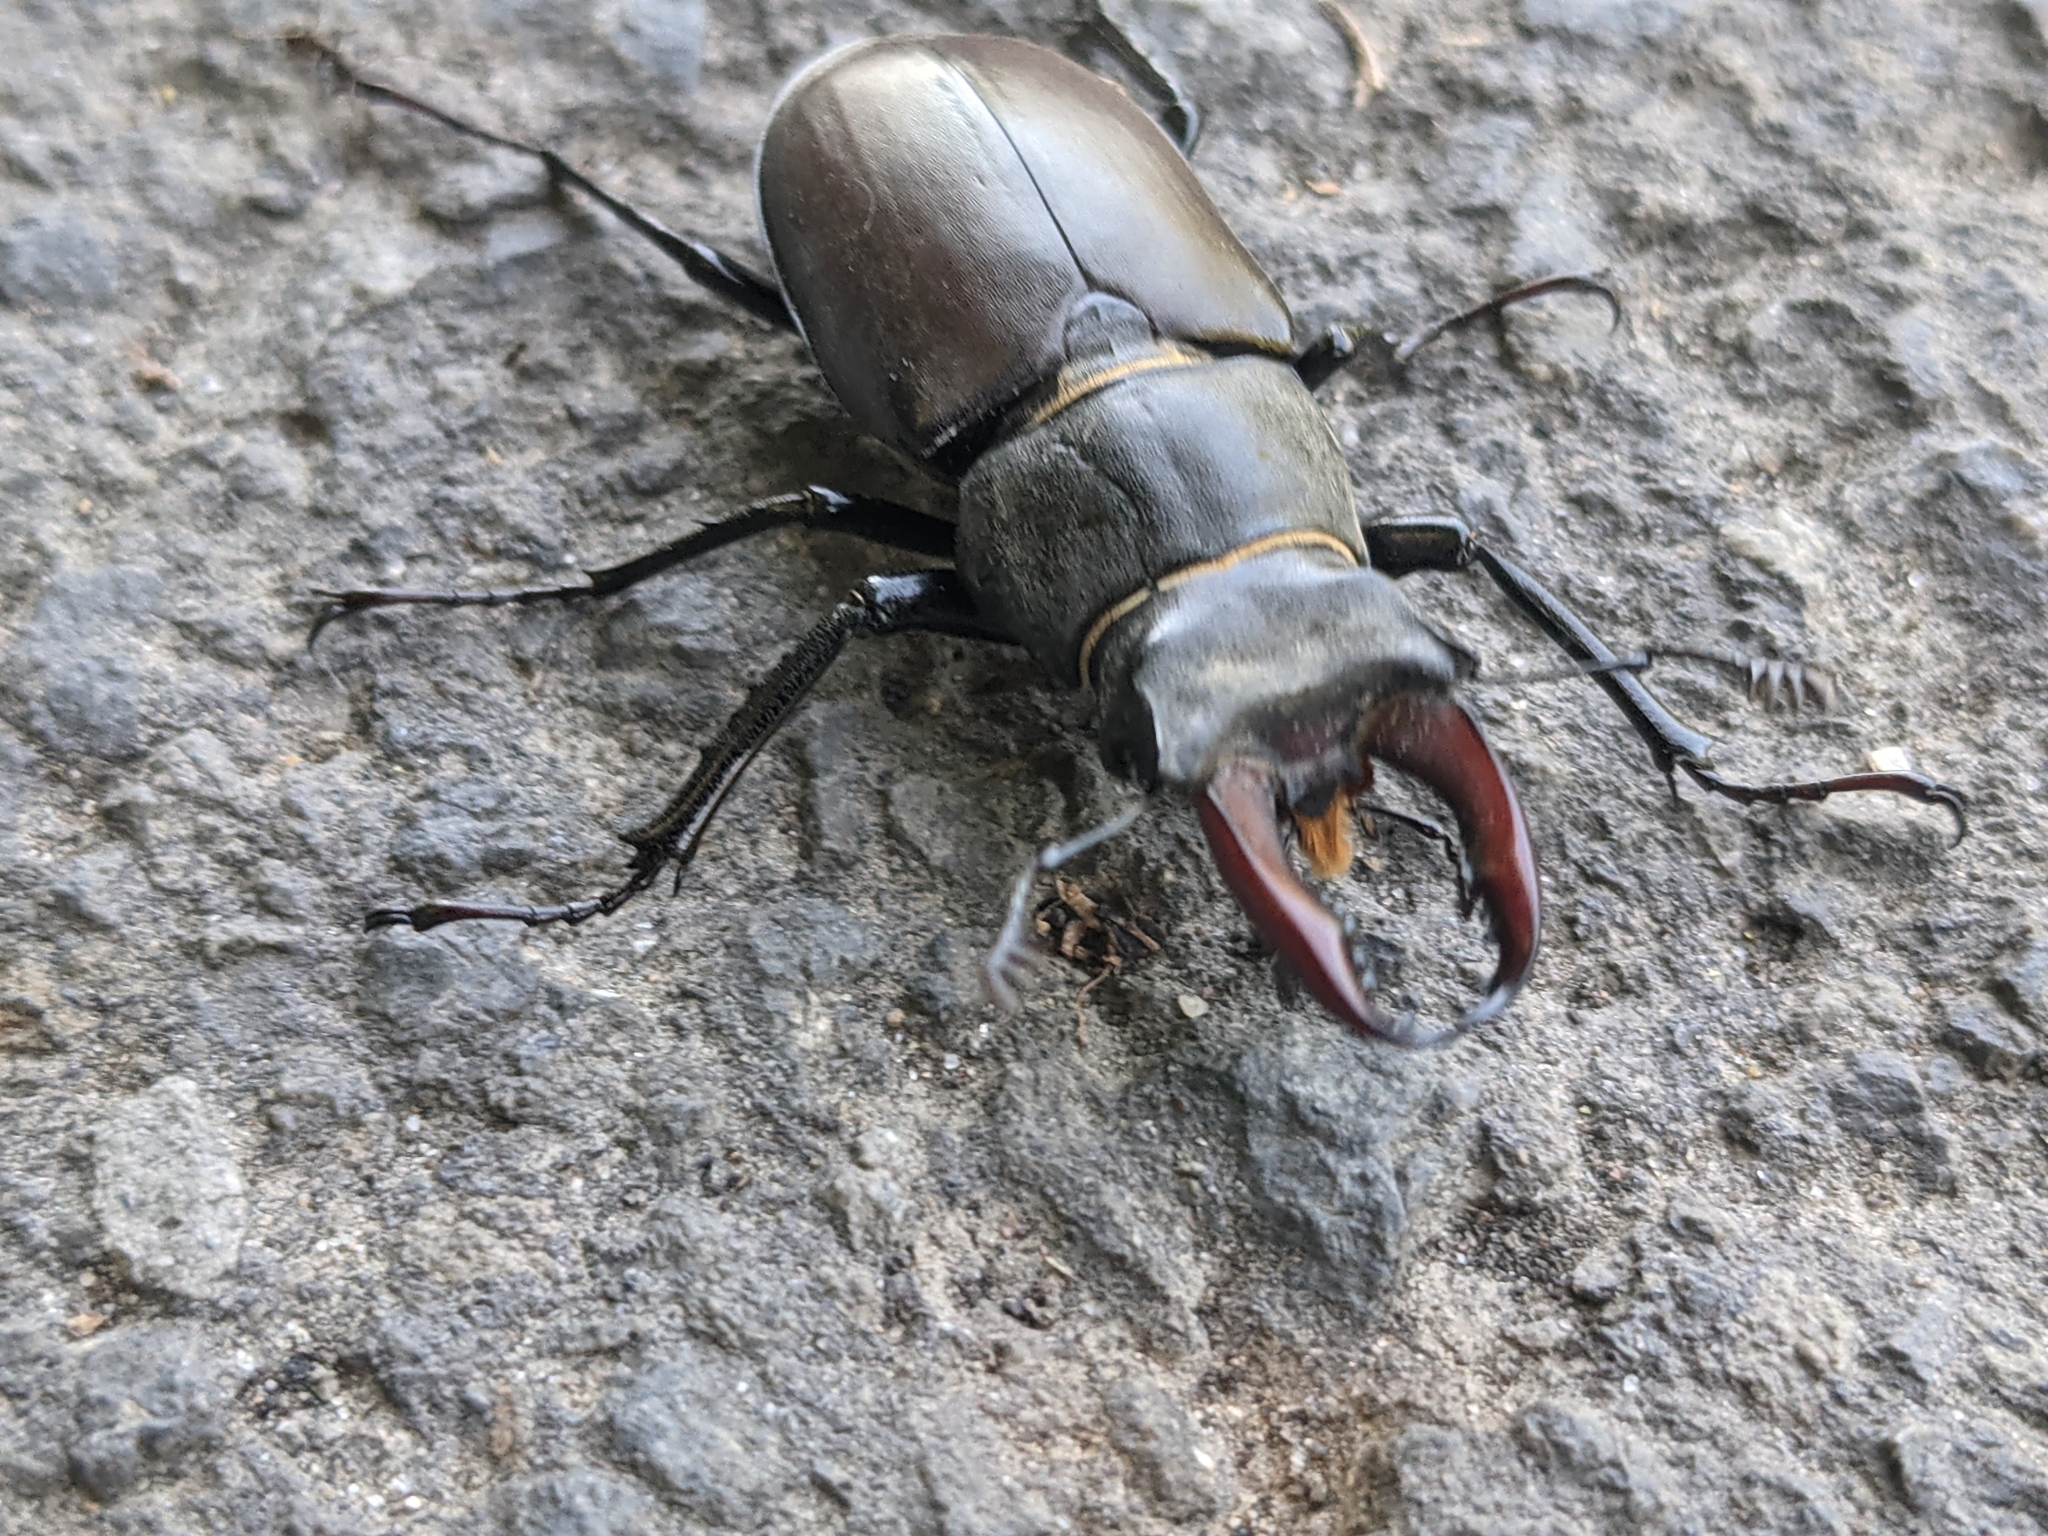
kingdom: Animalia
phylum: Arthropoda
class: Insecta
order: Coleoptera
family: Lucanidae
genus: Lucanus
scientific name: Lucanus cervus
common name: Stag beetle
